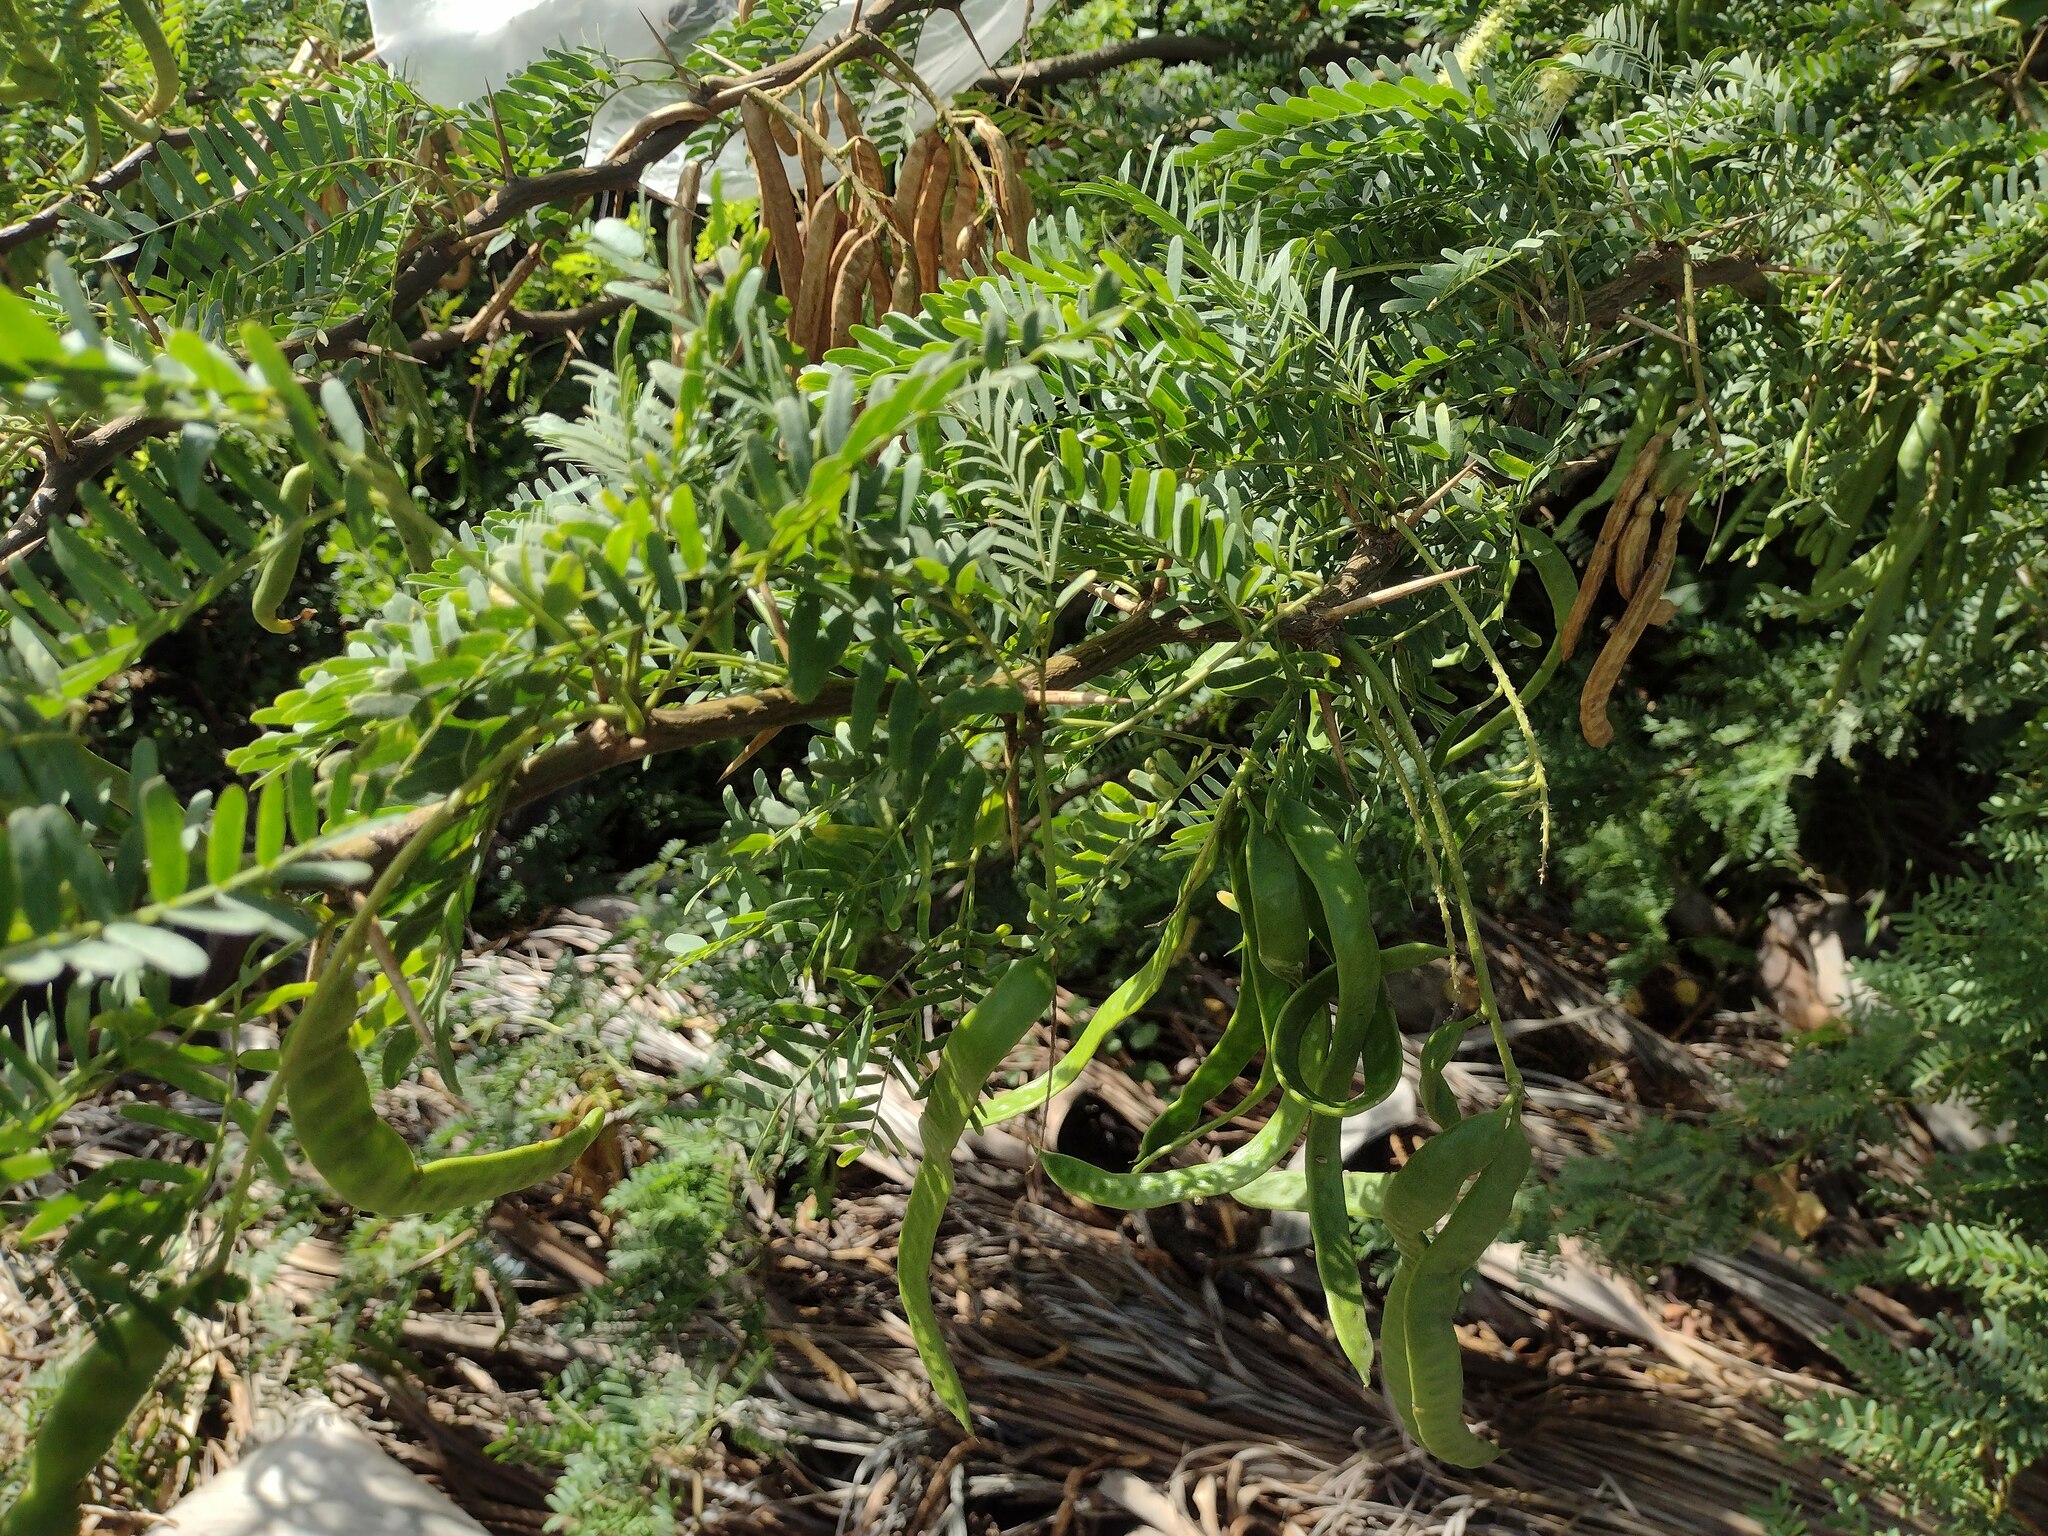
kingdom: Plantae
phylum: Tracheophyta
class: Magnoliopsida
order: Fabales
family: Fabaceae
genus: Prosopis
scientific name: Prosopis juliflora
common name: Mesquite
